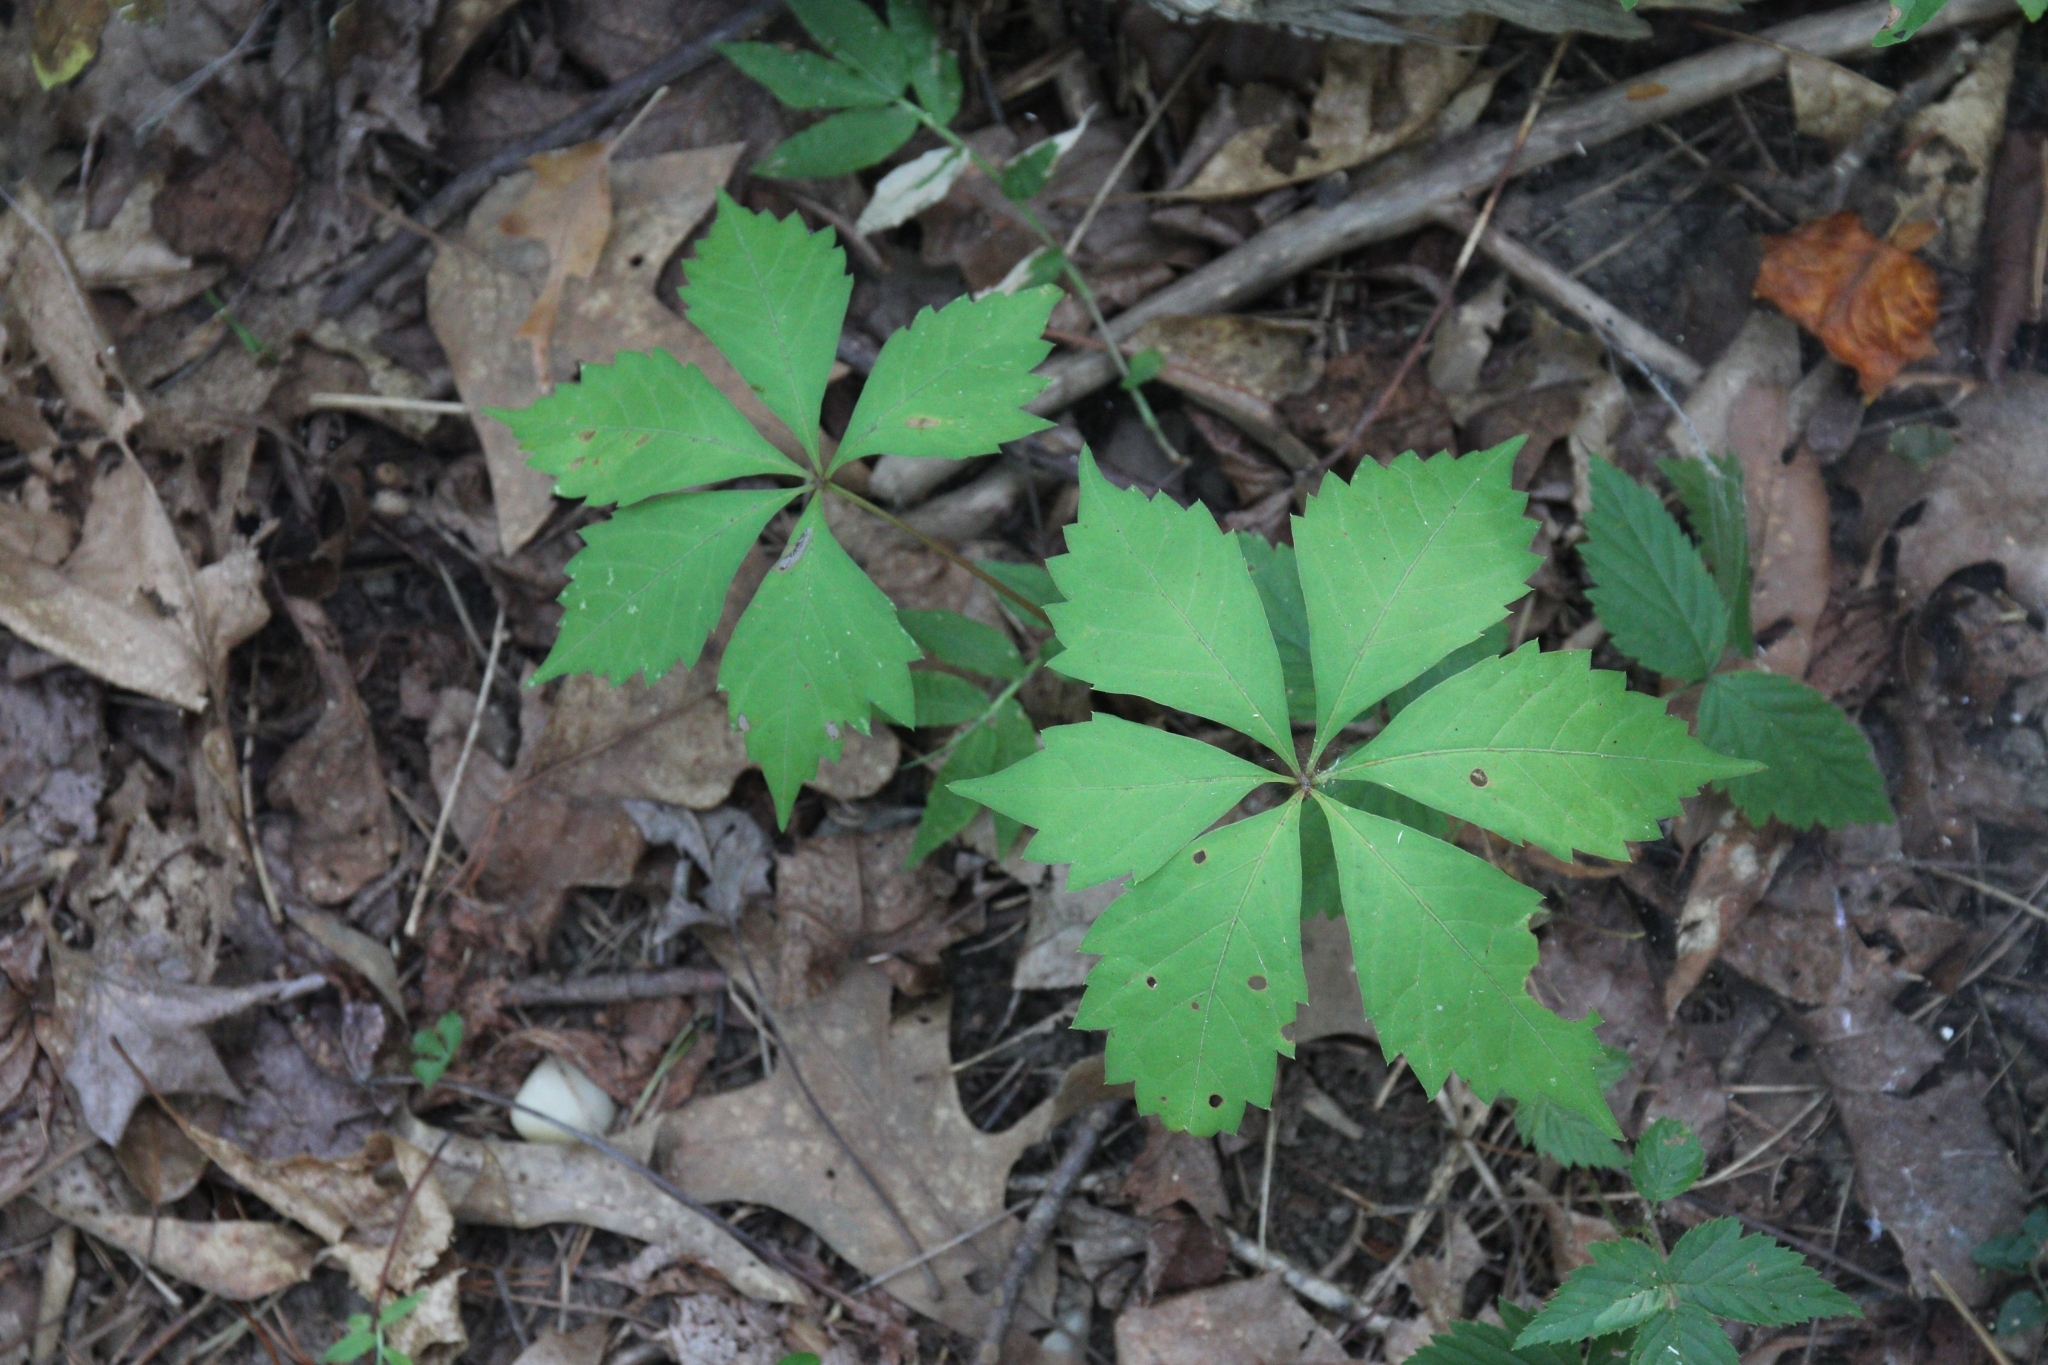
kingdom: Plantae
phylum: Tracheophyta
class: Magnoliopsida
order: Vitales
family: Vitaceae
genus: Parthenocissus
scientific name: Parthenocissus quinquefolia
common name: Virginia-creeper
